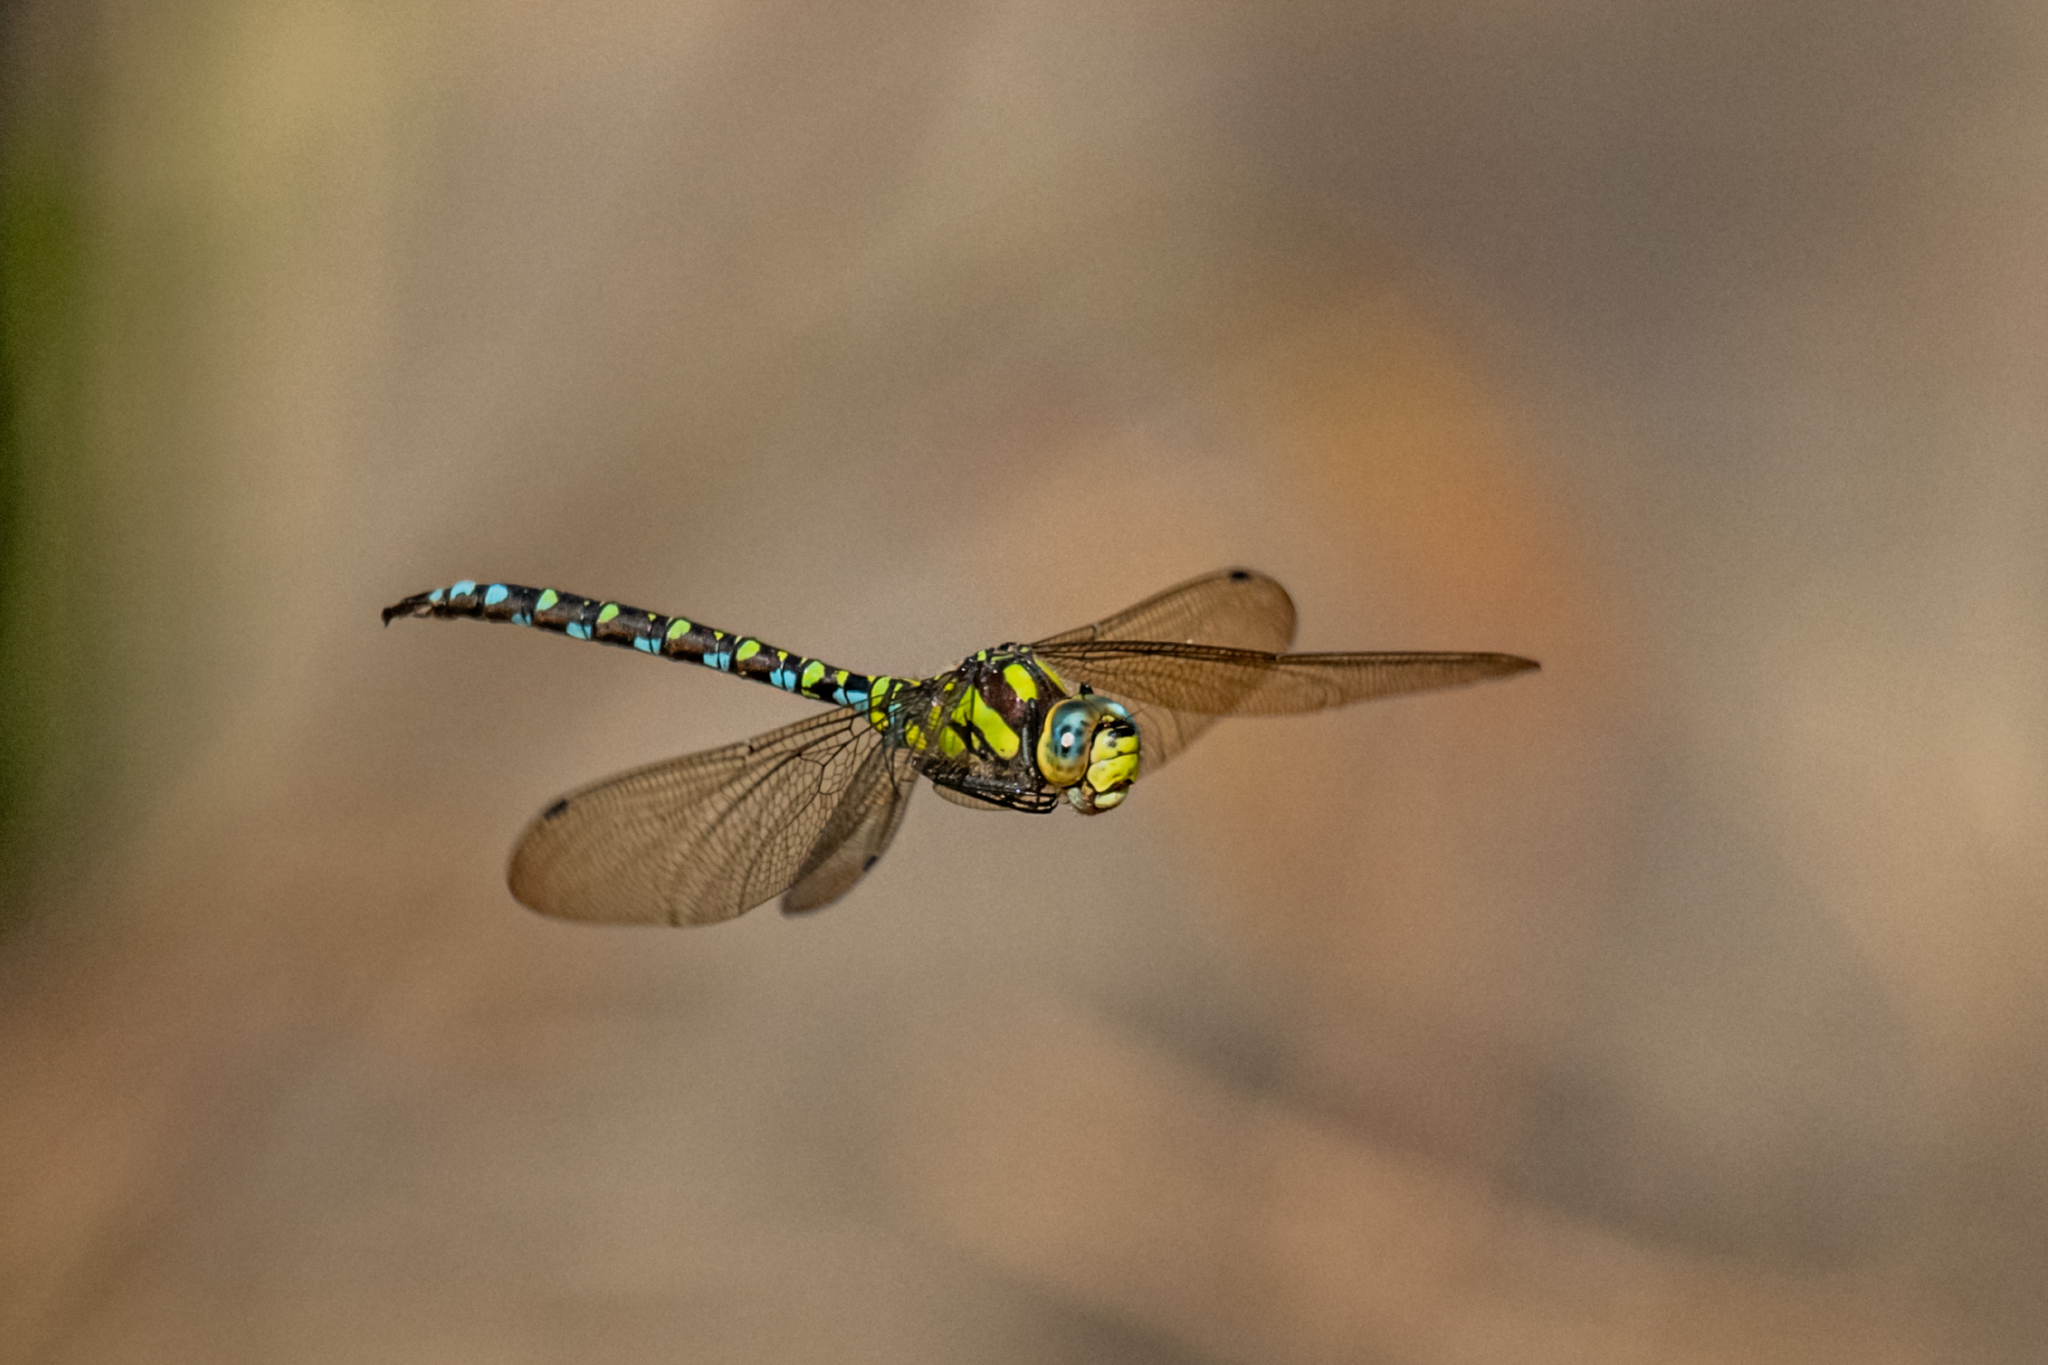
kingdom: Animalia
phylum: Arthropoda
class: Insecta
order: Odonata
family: Aeshnidae
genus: Aeshna
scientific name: Aeshna cyanea
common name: Southern hawker
